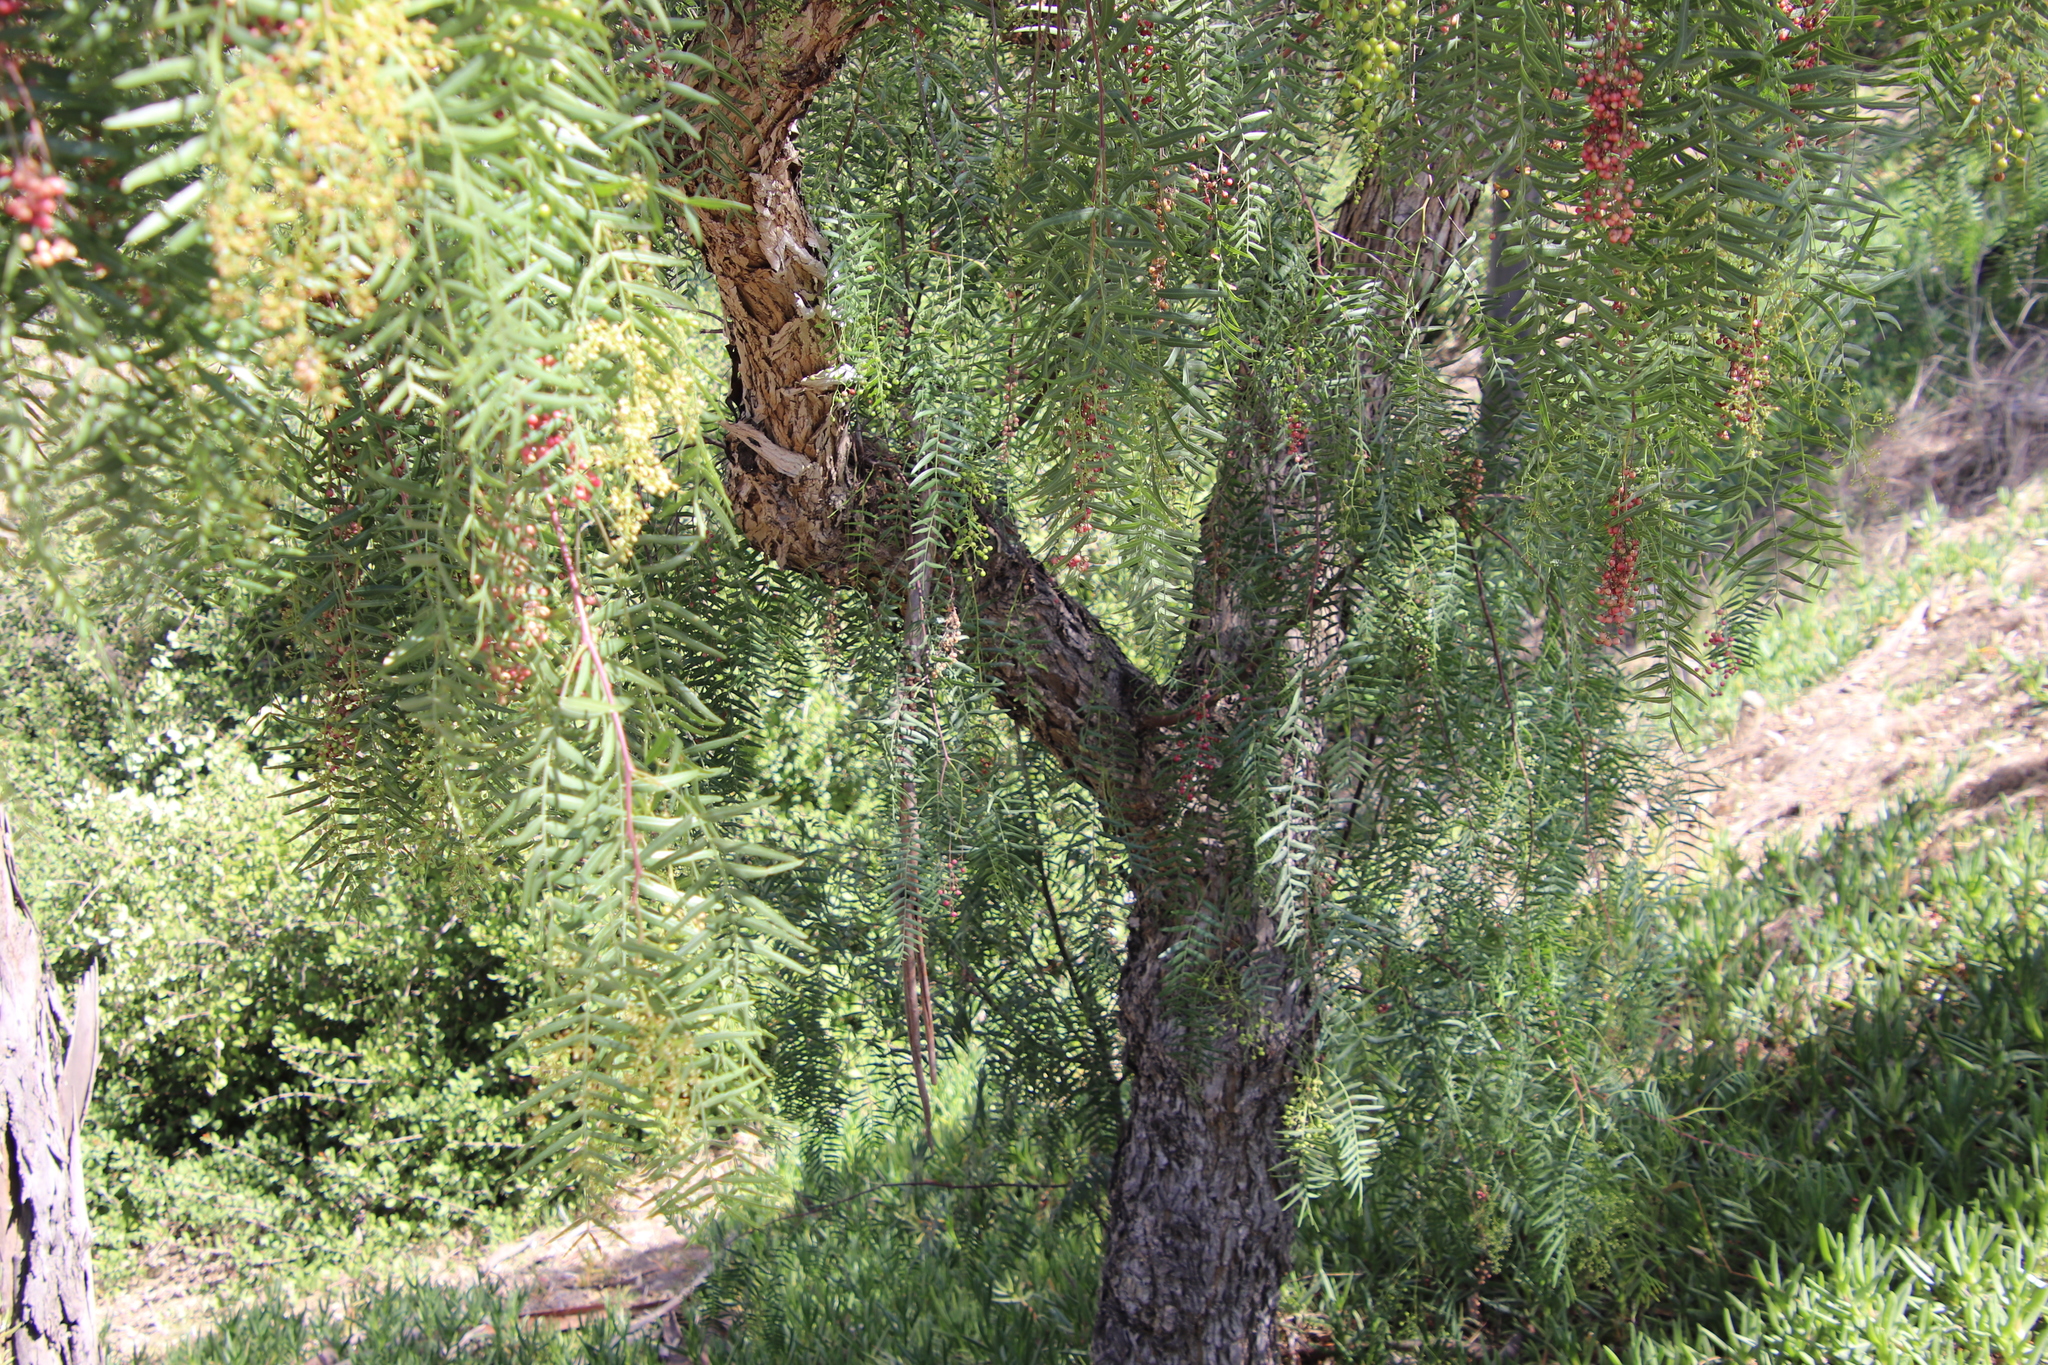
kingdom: Plantae
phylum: Tracheophyta
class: Magnoliopsida
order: Sapindales
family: Anacardiaceae
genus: Schinus
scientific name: Schinus molle
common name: Peruvian peppertree
